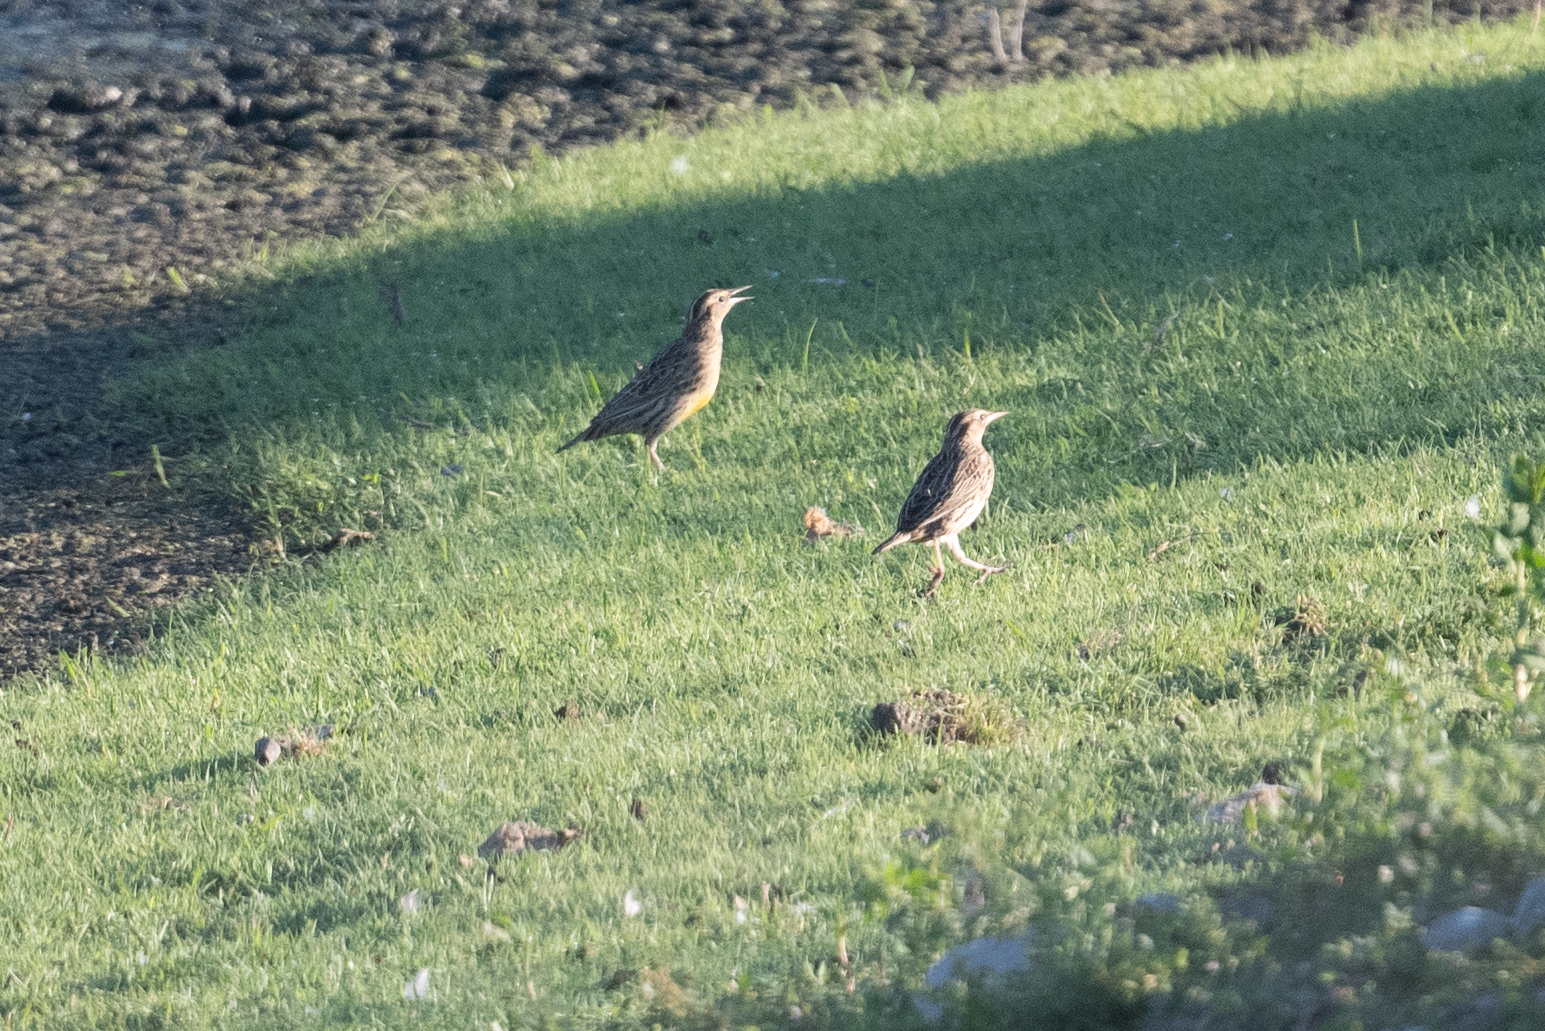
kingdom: Animalia
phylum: Chordata
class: Aves
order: Passeriformes
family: Icteridae
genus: Sturnella
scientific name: Sturnella neglecta
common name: Western meadowlark
